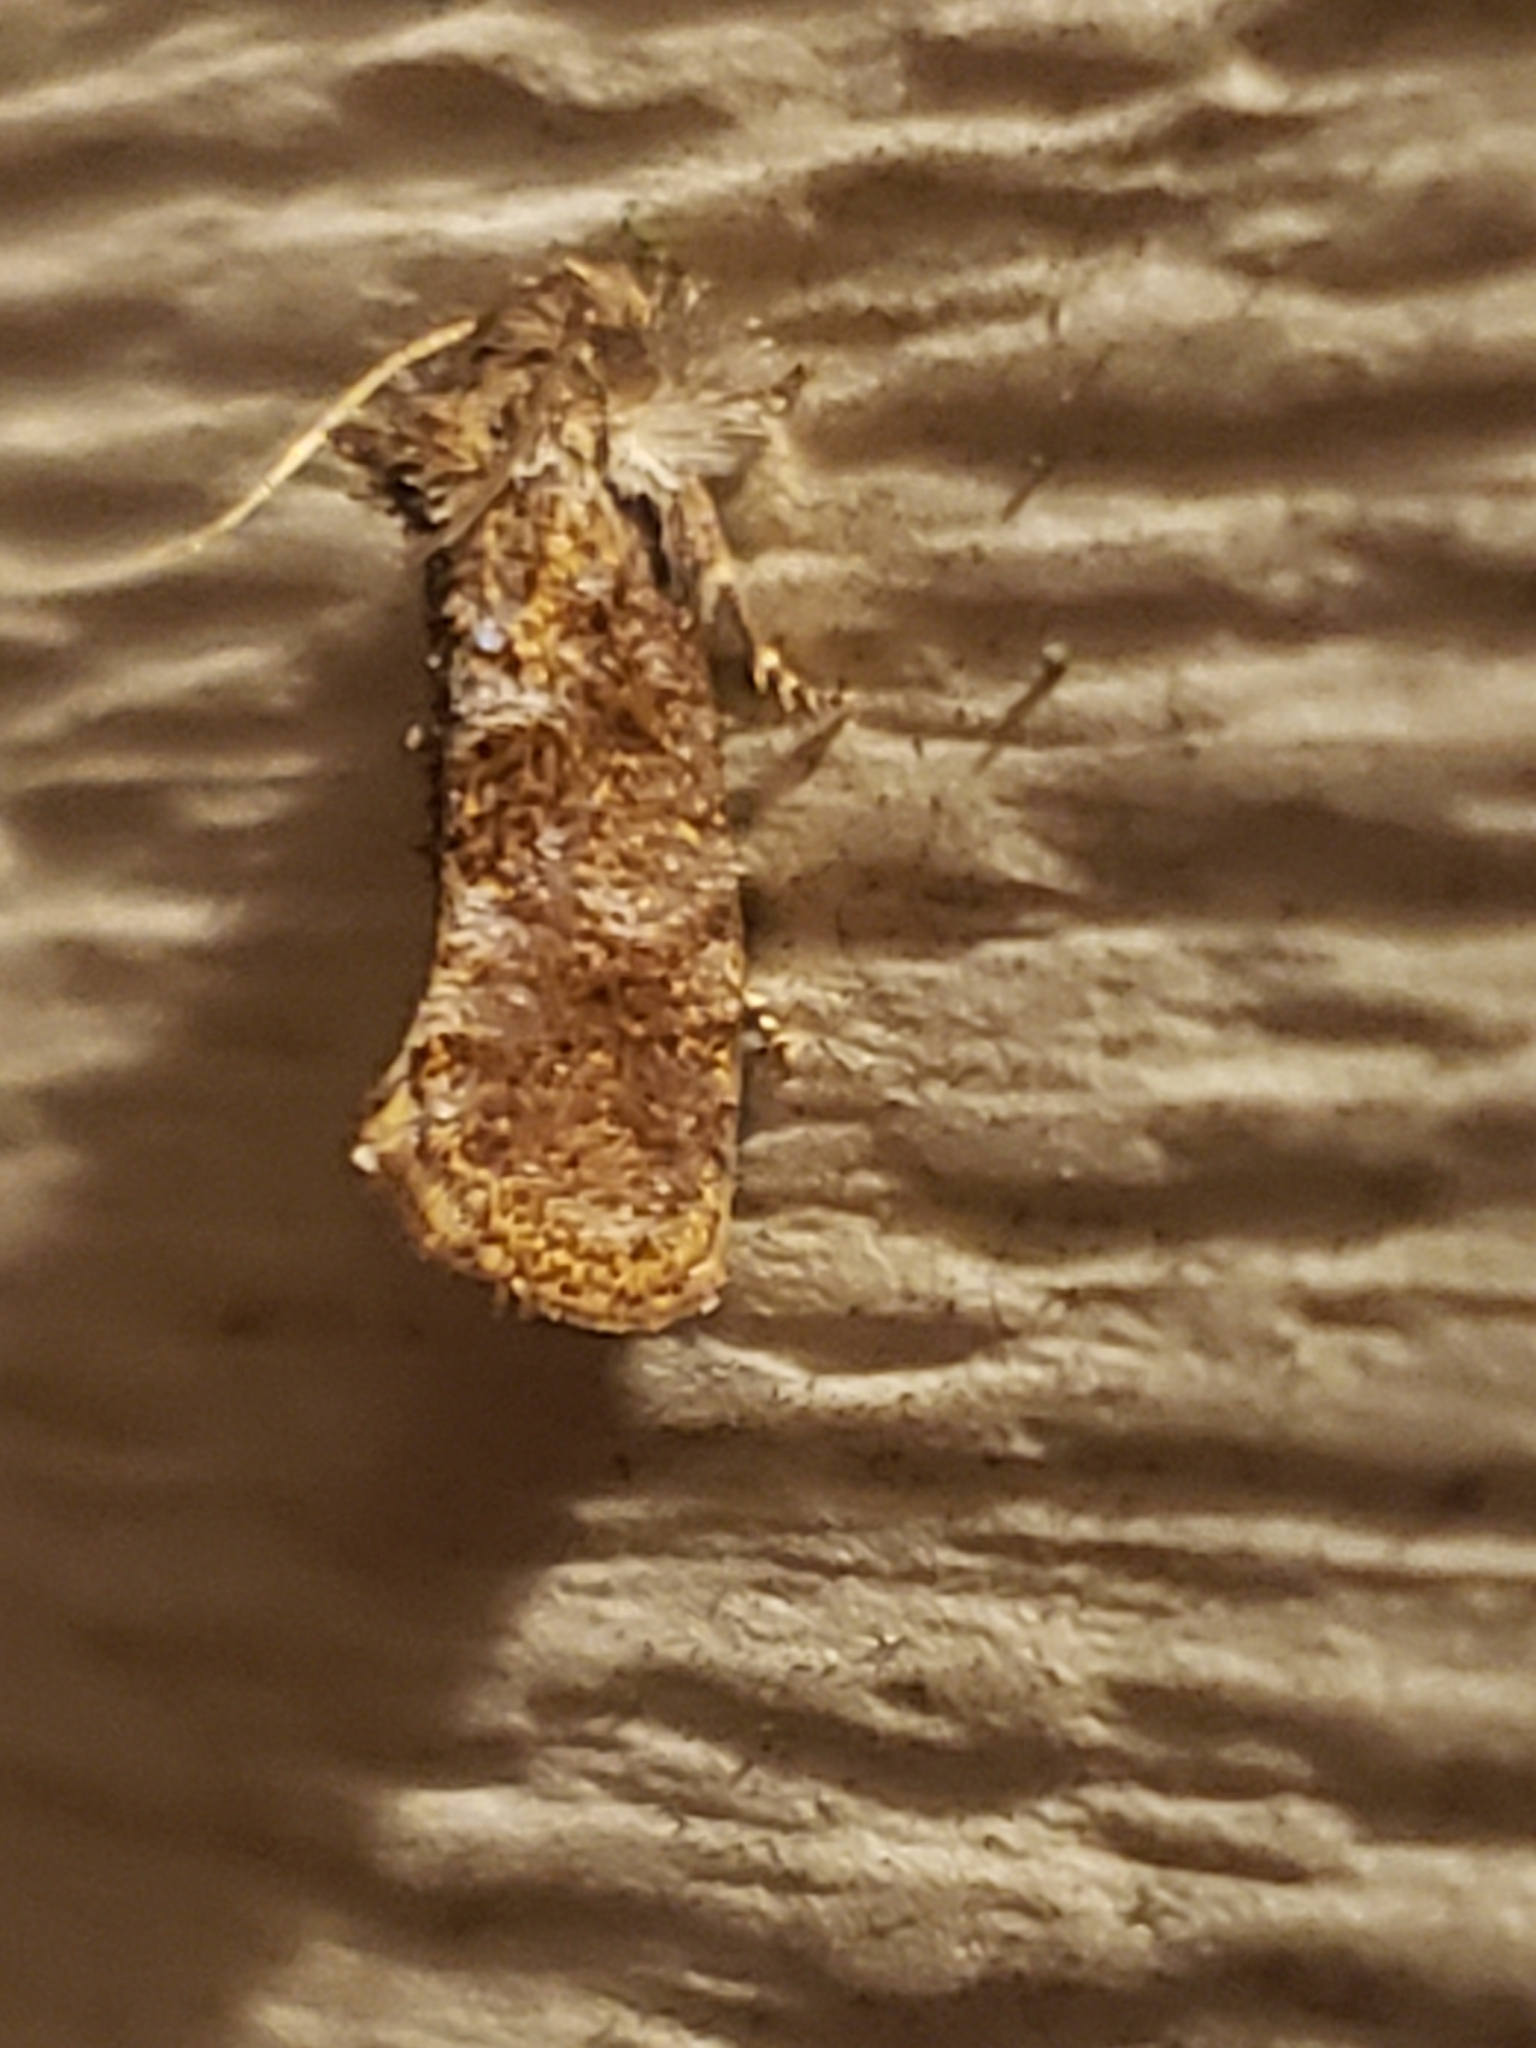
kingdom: Animalia
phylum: Arthropoda
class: Insecta
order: Lepidoptera
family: Tineidae
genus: Acrolophus
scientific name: Acrolophus panamae
